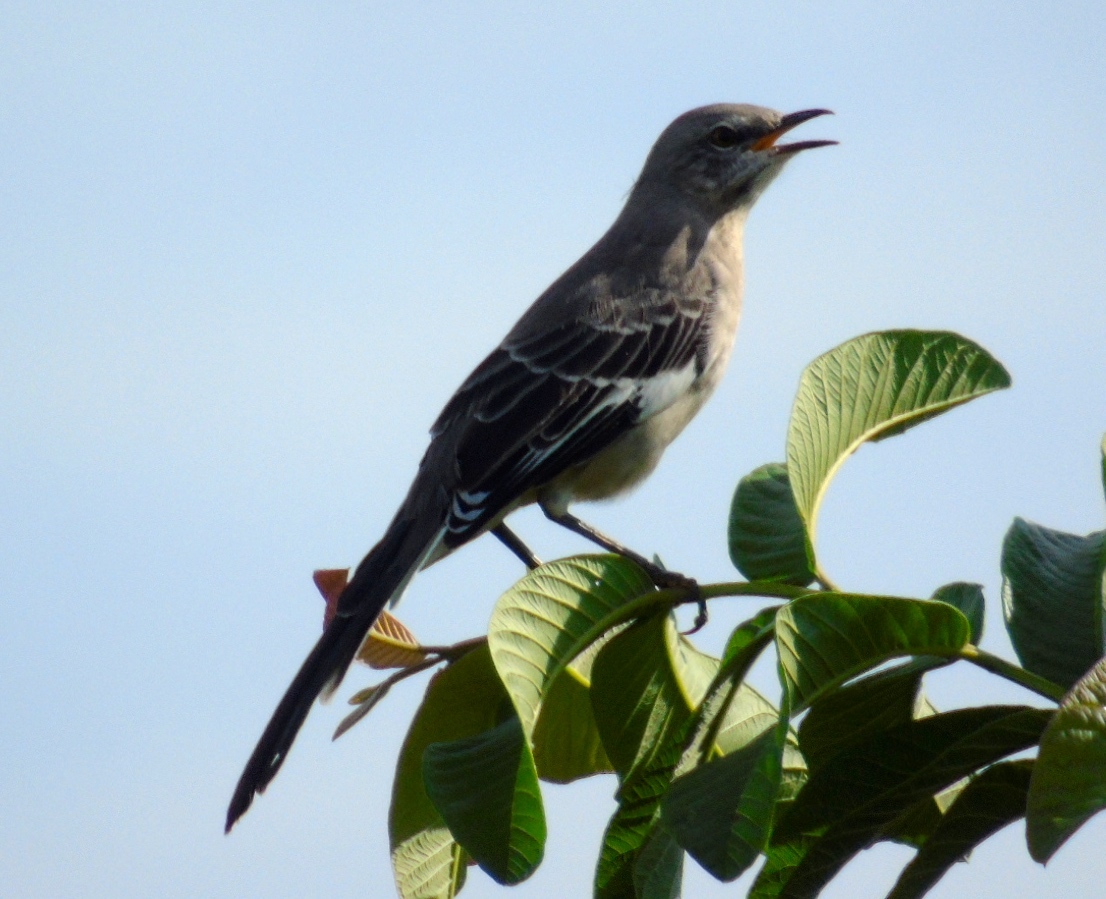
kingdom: Animalia
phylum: Chordata
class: Aves
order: Passeriformes
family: Mimidae
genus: Mimus
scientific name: Mimus polyglottos
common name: Northern mockingbird
